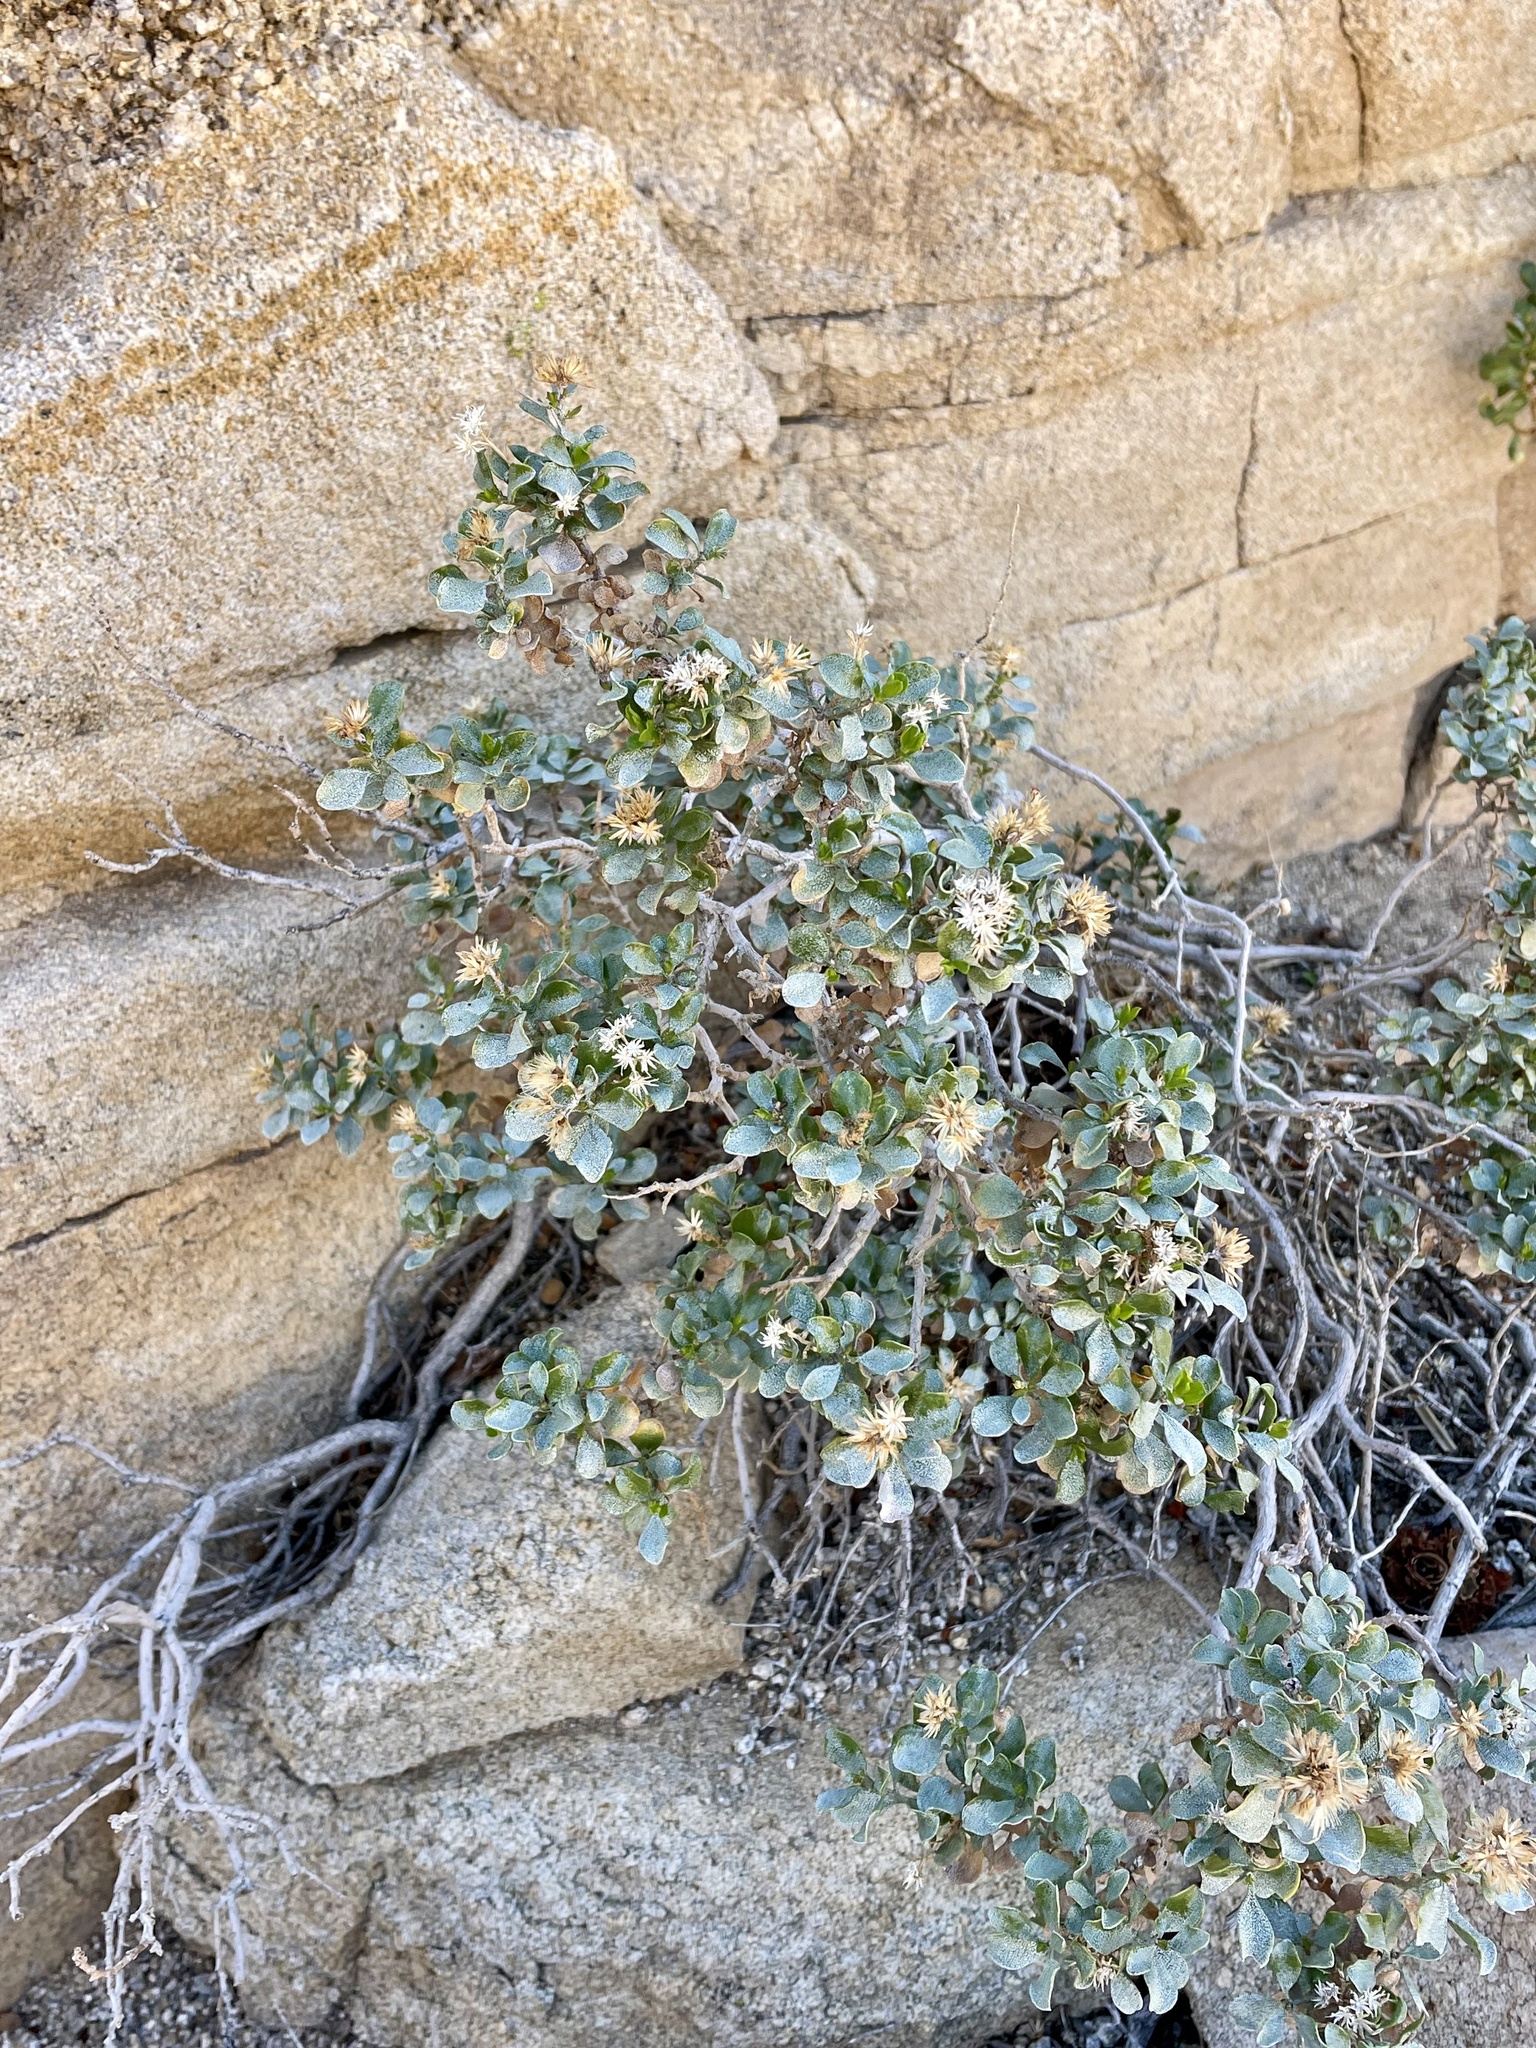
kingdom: Plantae
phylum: Tracheophyta
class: Magnoliopsida
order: Asterales
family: Asteraceae
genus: Ericameria
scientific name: Ericameria cuneata
